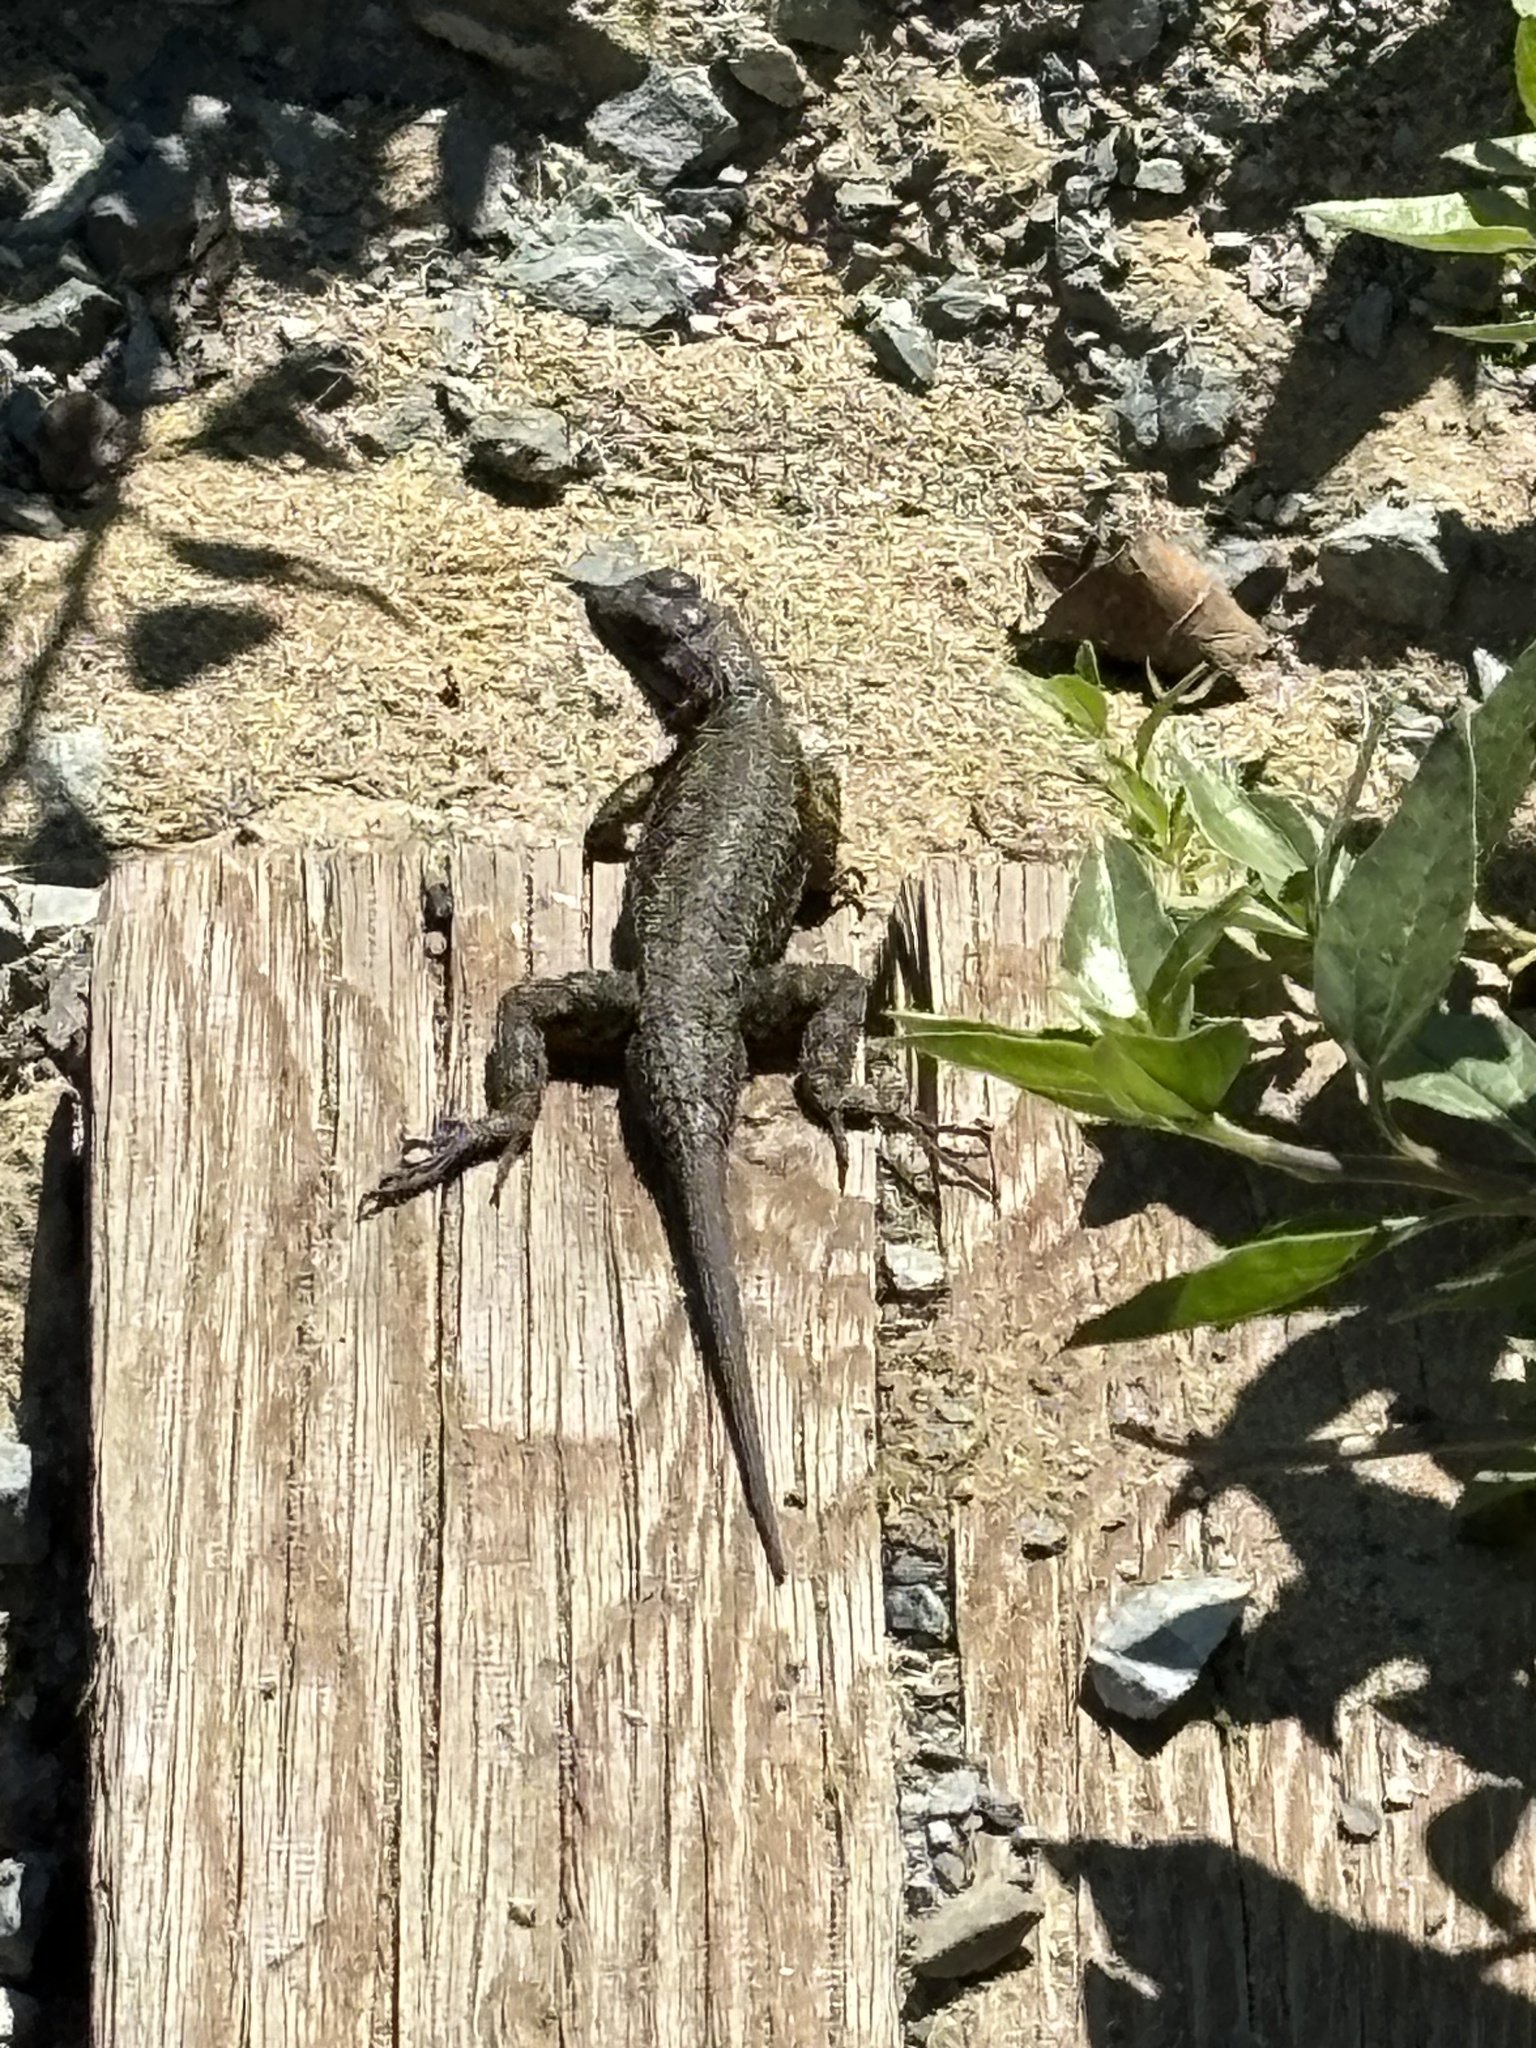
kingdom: Animalia
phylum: Chordata
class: Squamata
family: Phrynosomatidae
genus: Sceloporus
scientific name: Sceloporus occidentalis
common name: Western fence lizard
